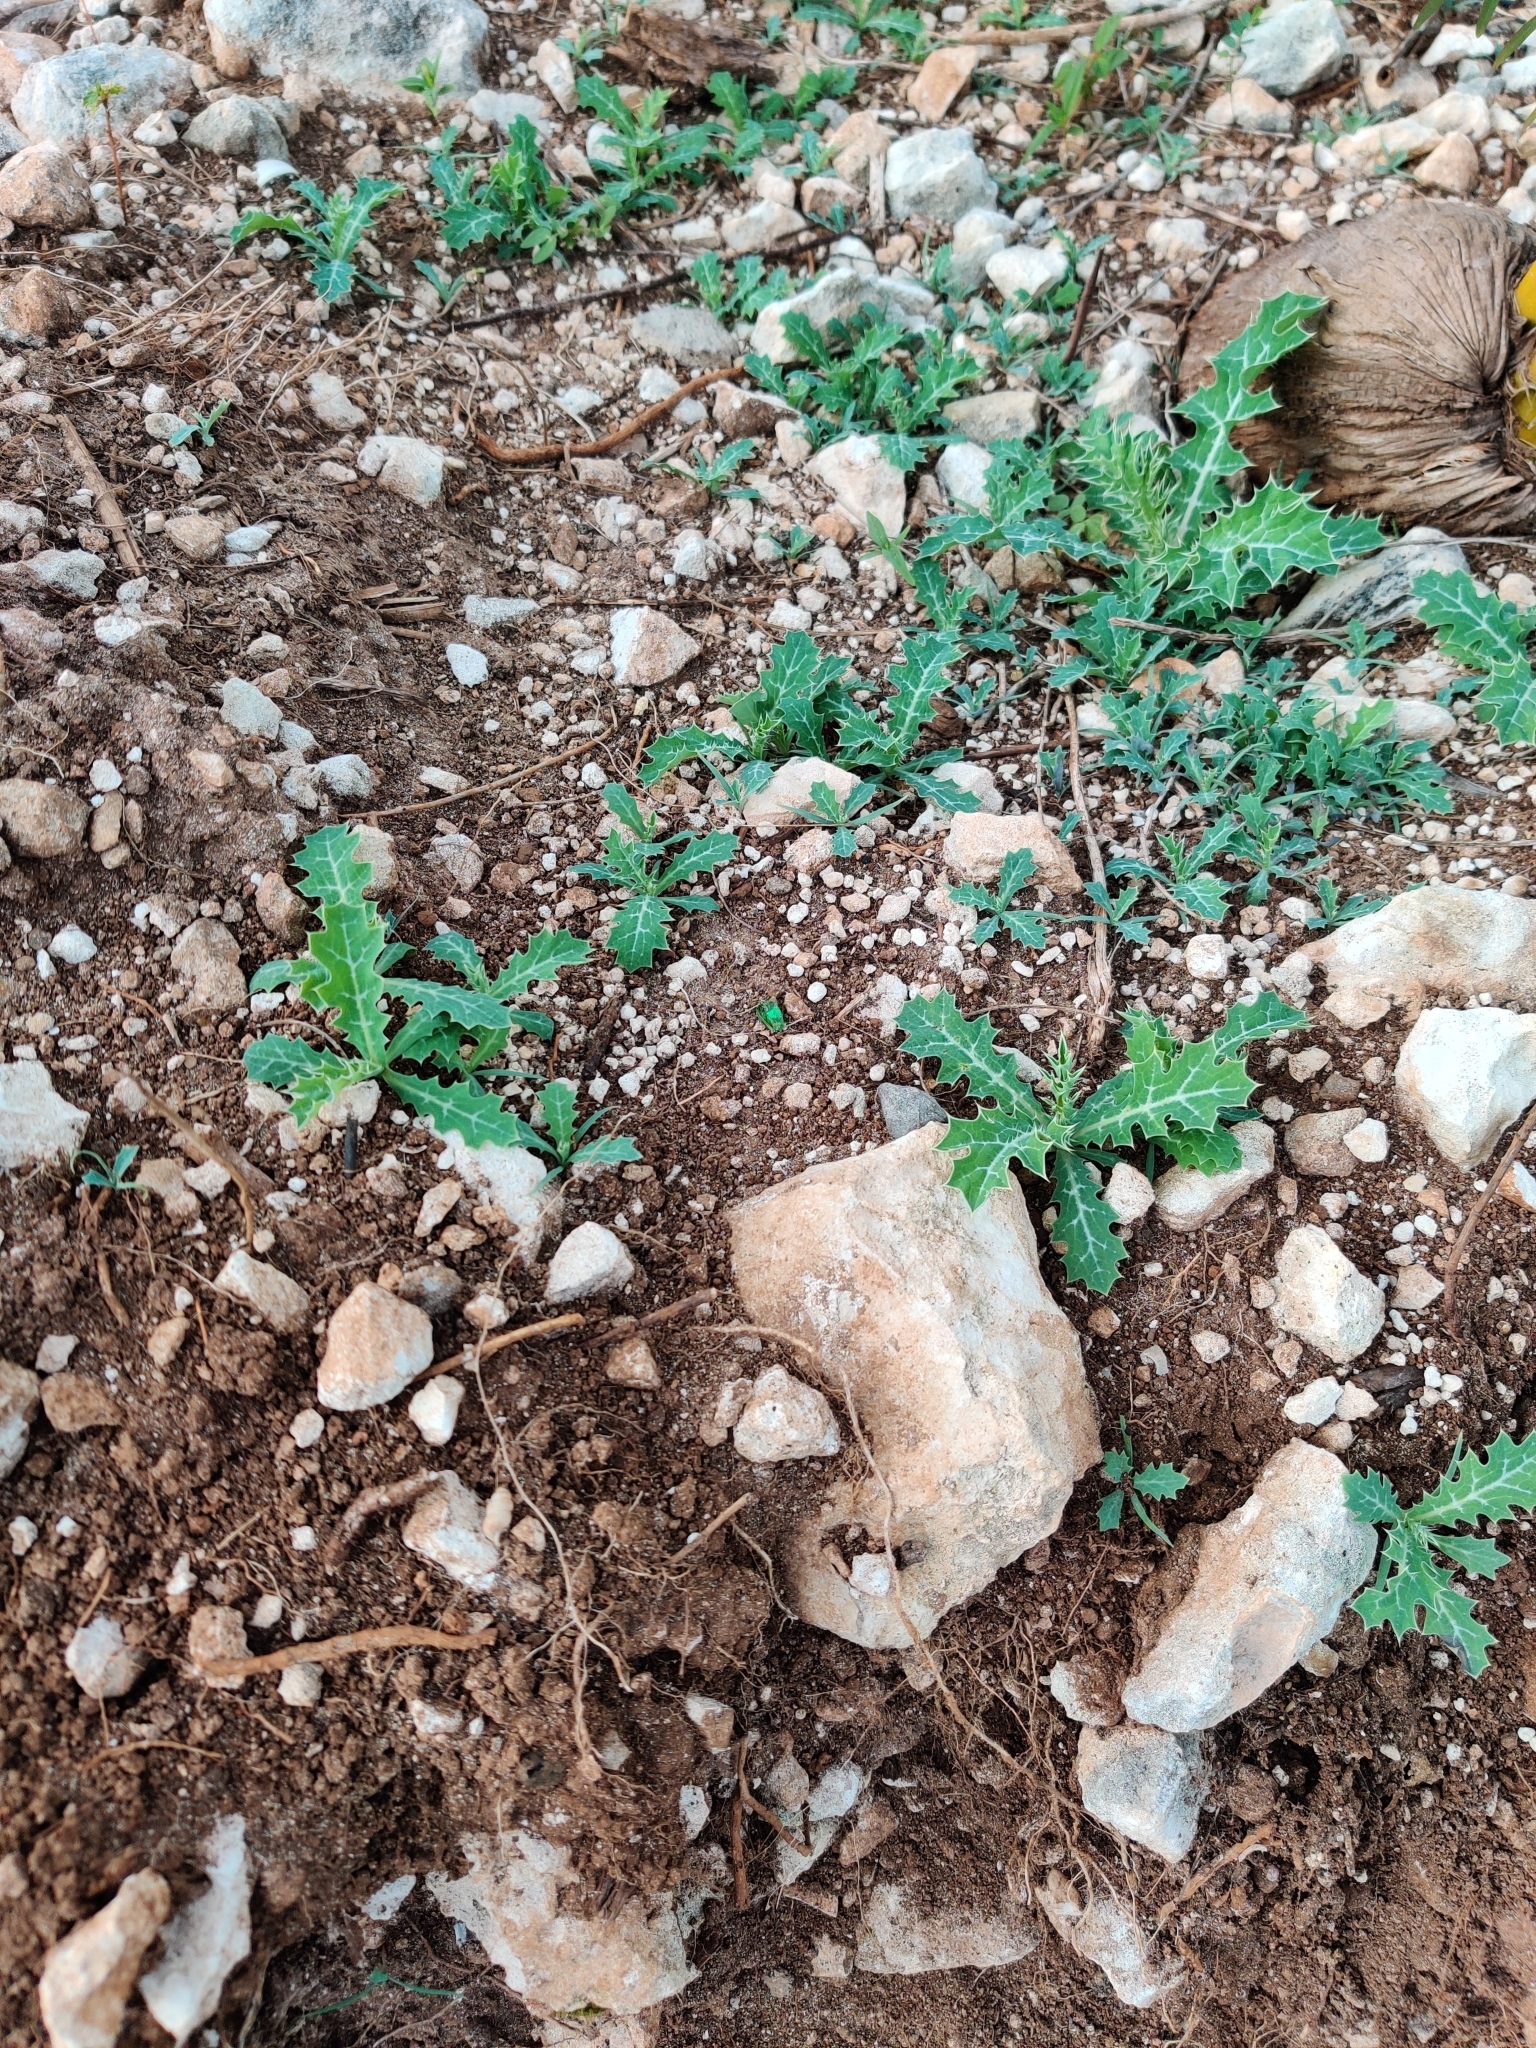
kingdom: Plantae
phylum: Tracheophyta
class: Magnoliopsida
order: Ranunculales
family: Papaveraceae
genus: Argemone
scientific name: Argemone mexicana
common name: Mexican poppy
